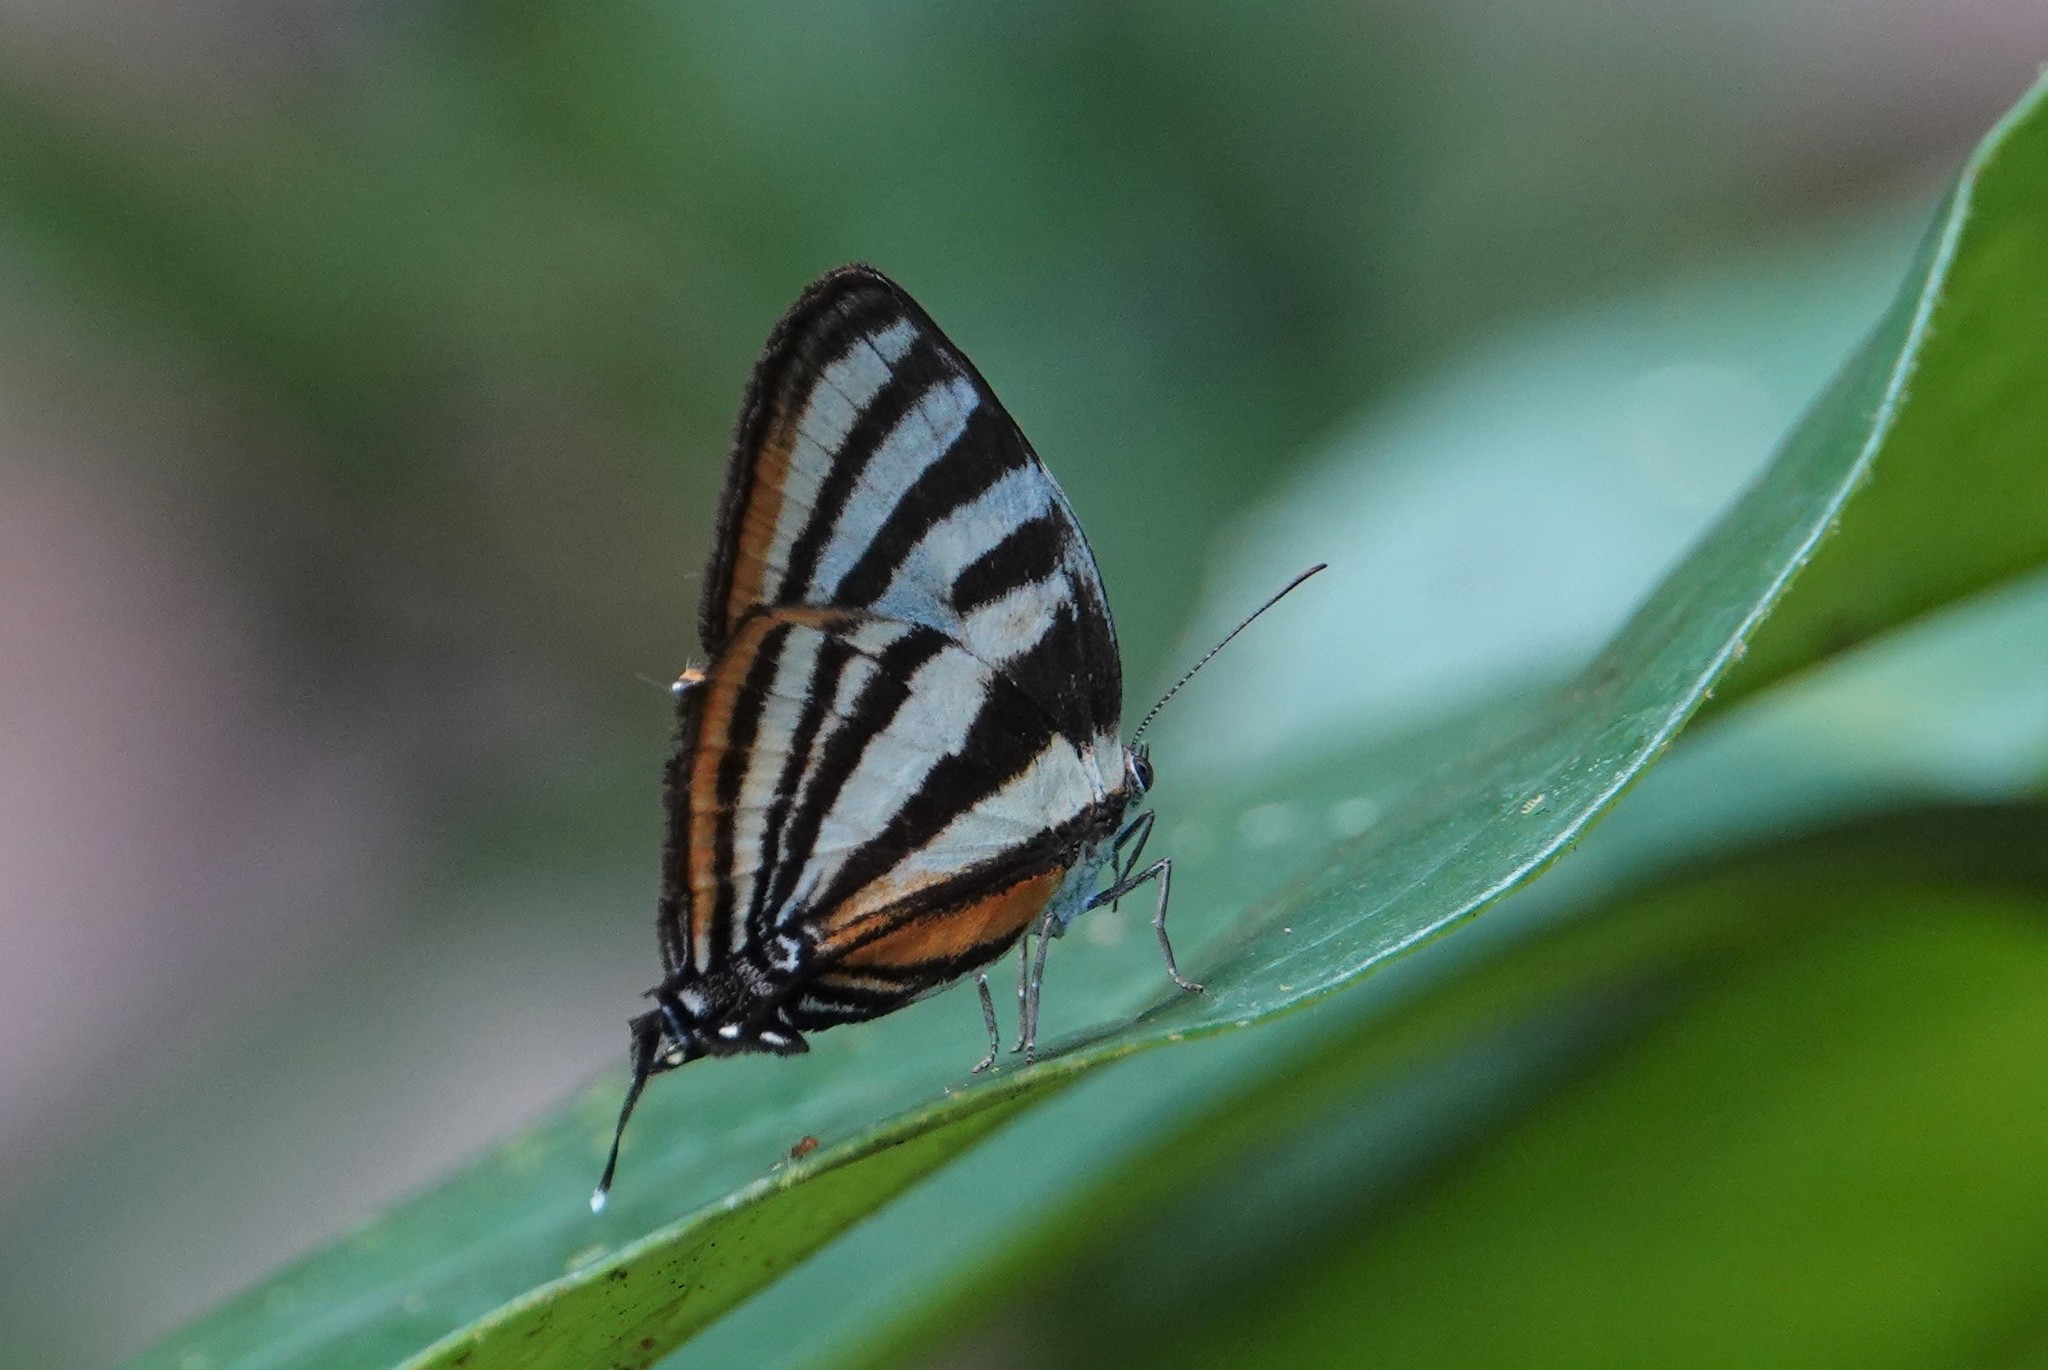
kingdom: Animalia
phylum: Arthropoda
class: Insecta
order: Lepidoptera
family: Lycaenidae
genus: Thecla
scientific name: Thecla aetolus
